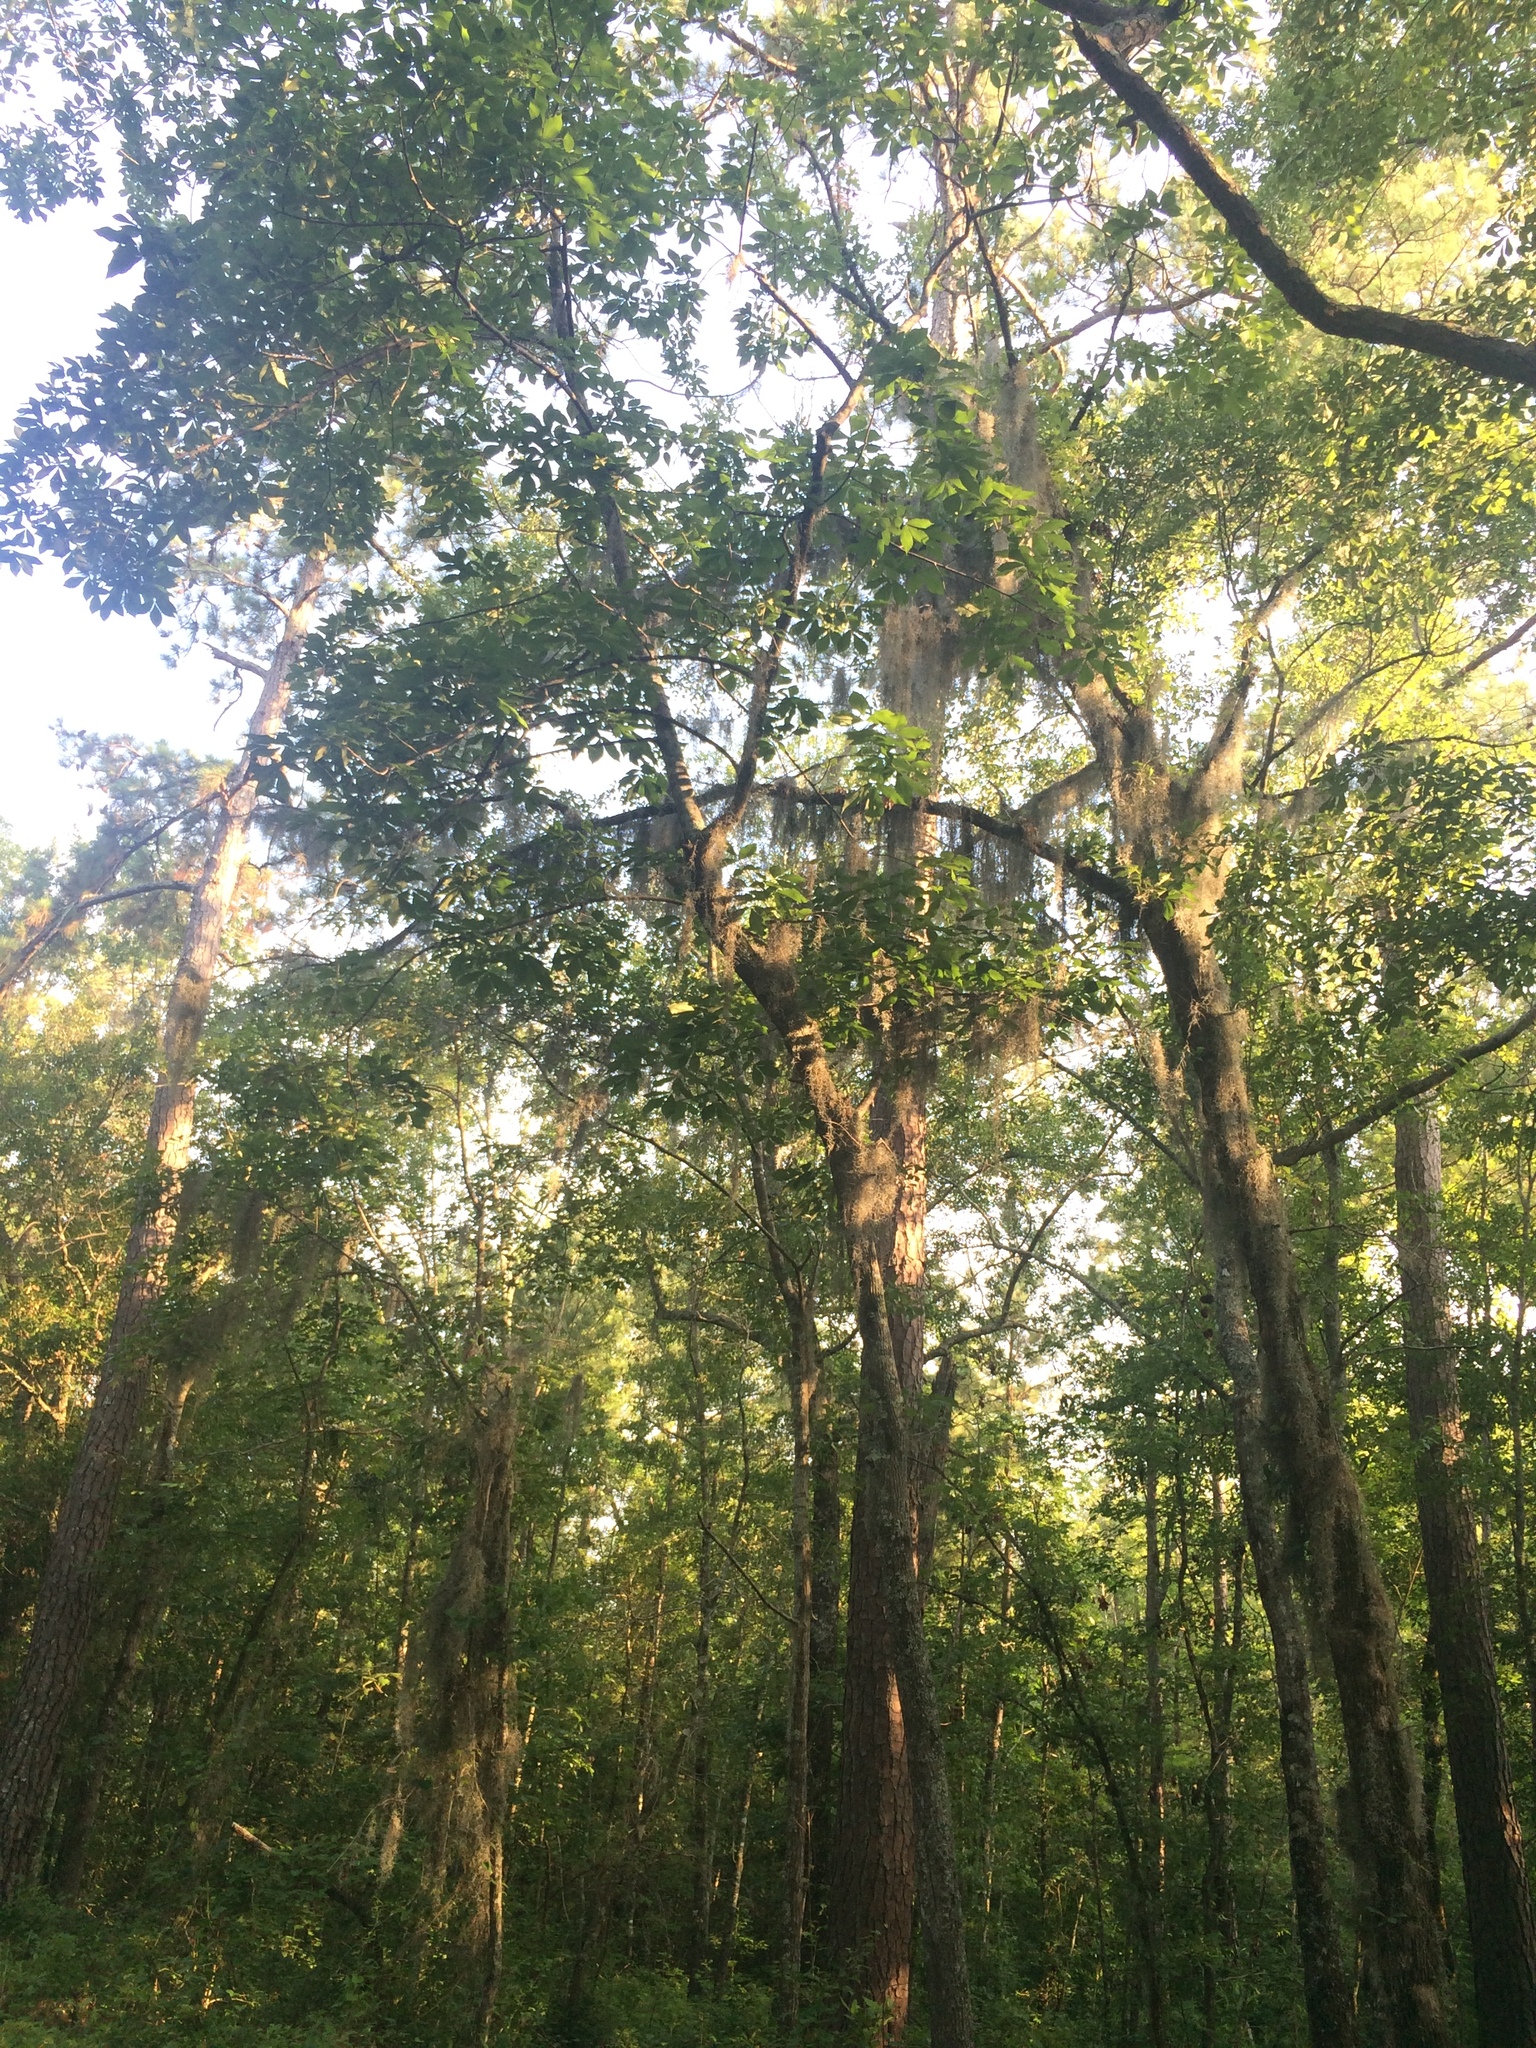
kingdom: Plantae
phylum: Tracheophyta
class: Liliopsida
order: Poales
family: Bromeliaceae
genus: Tillandsia
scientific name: Tillandsia usneoides
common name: Spanish moss
